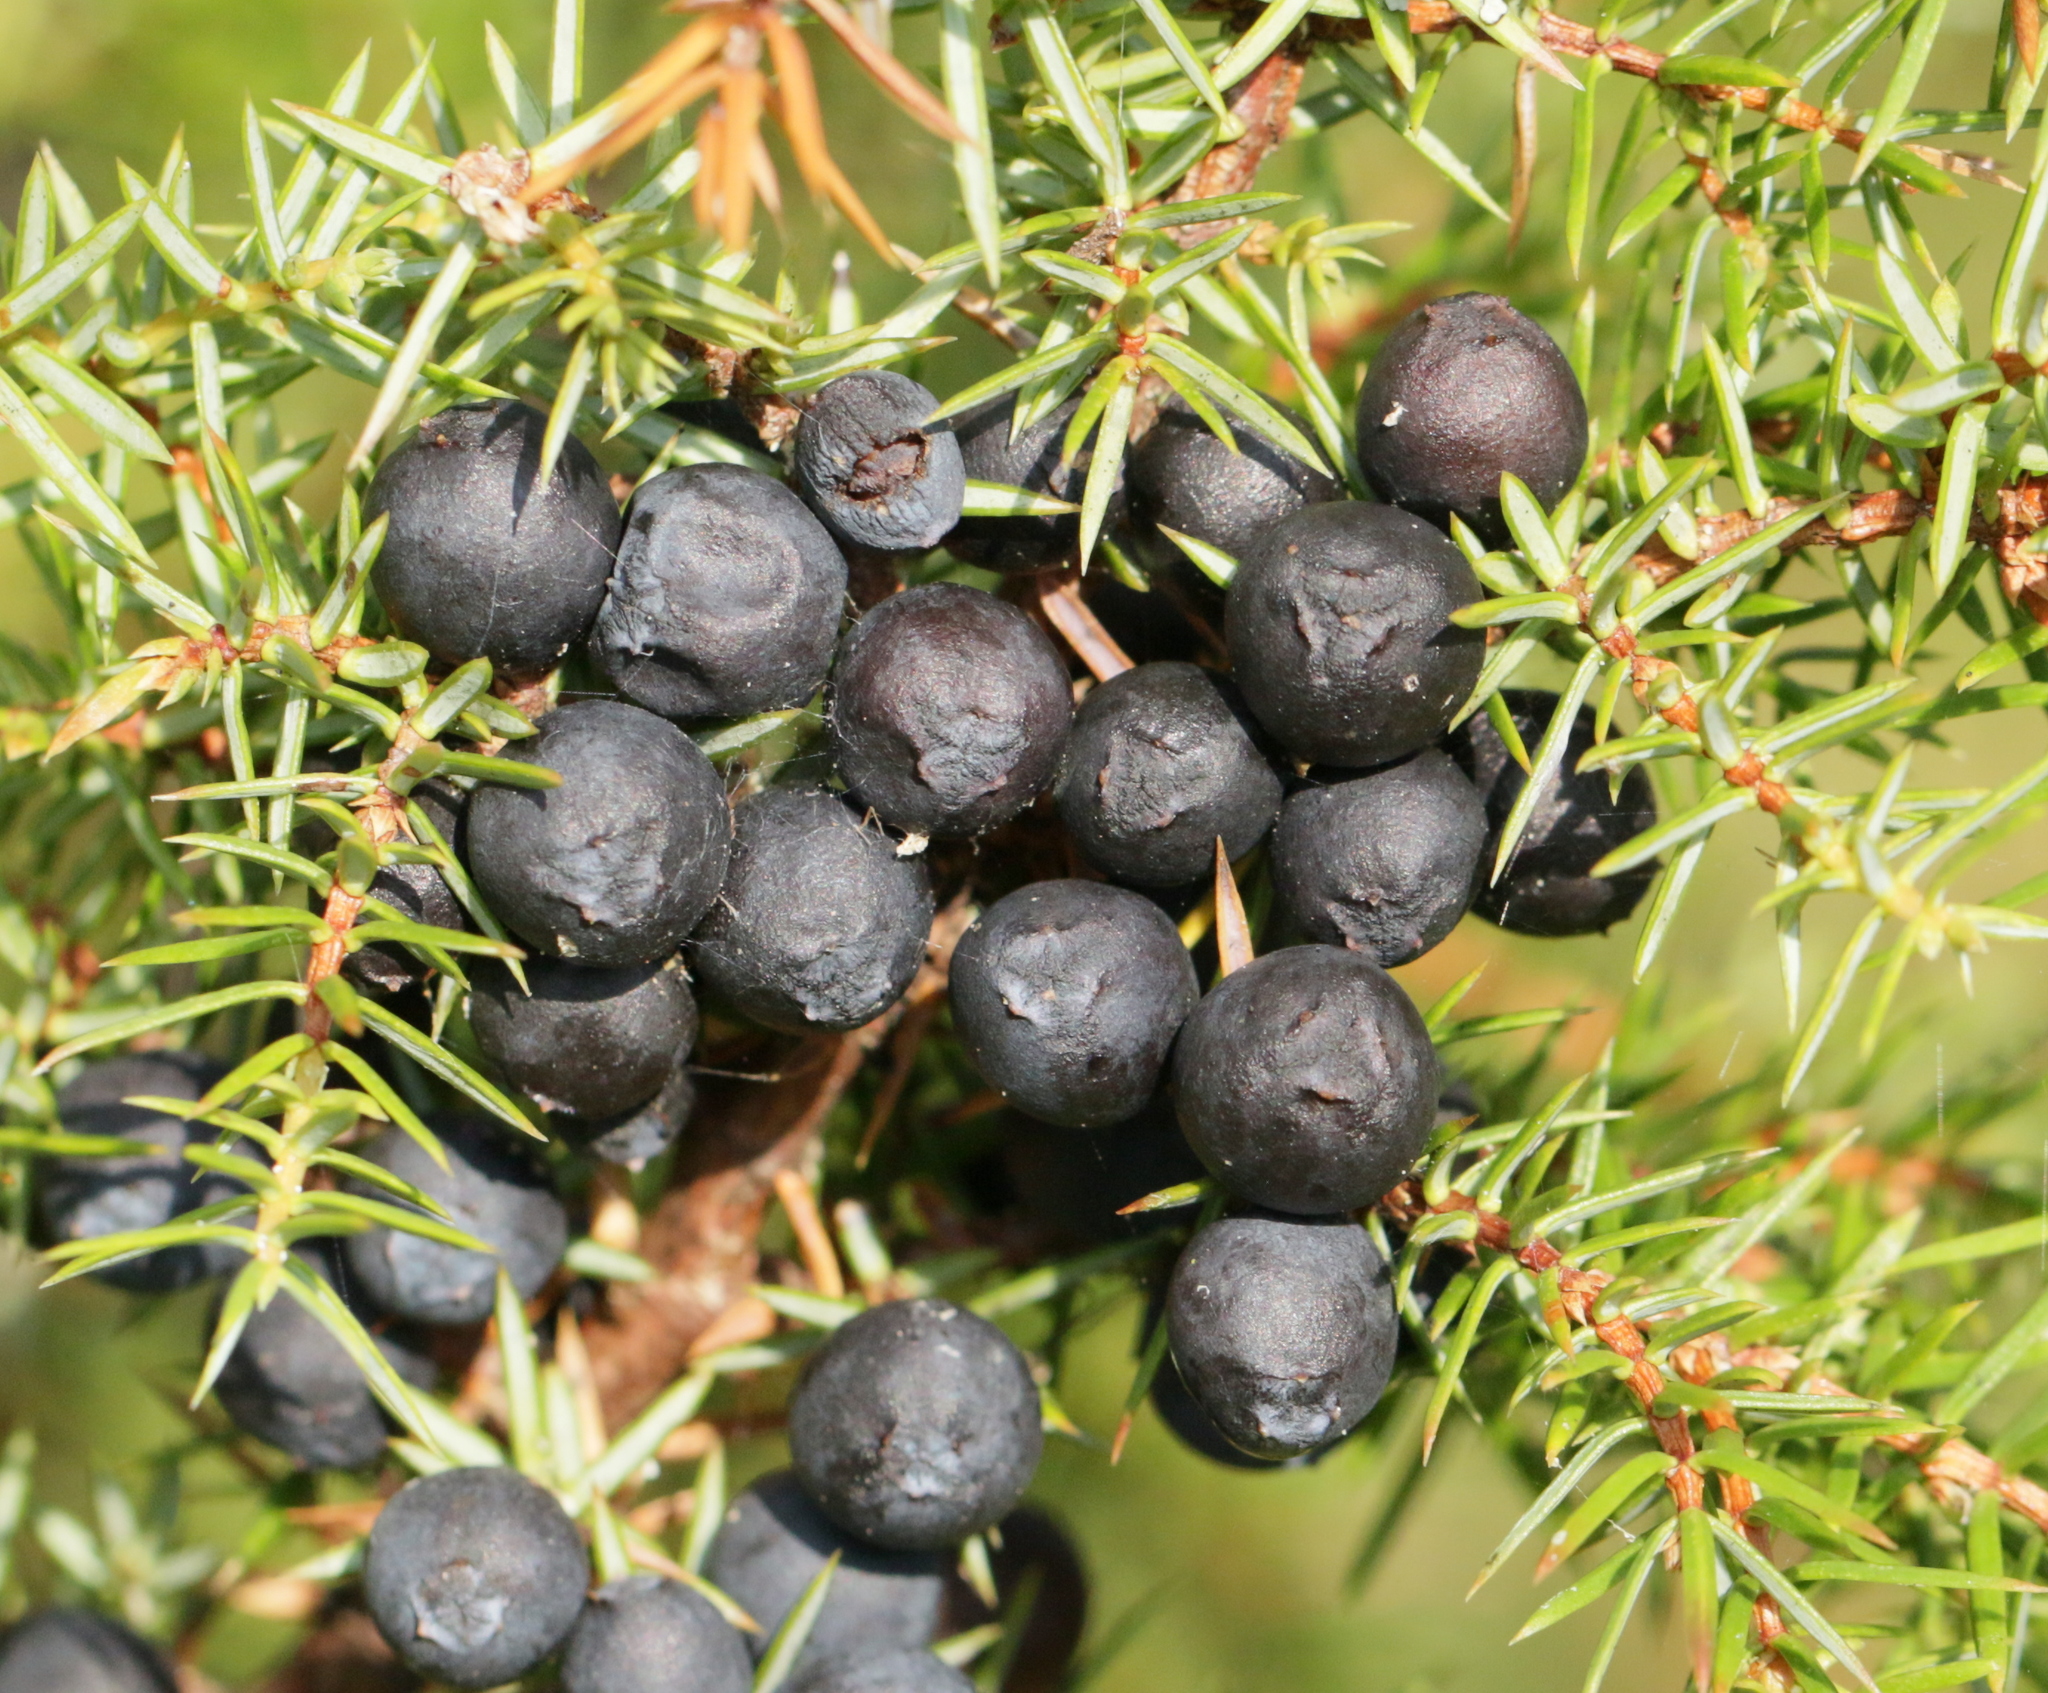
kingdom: Plantae
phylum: Tracheophyta
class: Pinopsida
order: Pinales
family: Cupressaceae
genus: Juniperus
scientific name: Juniperus communis
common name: Common juniper
